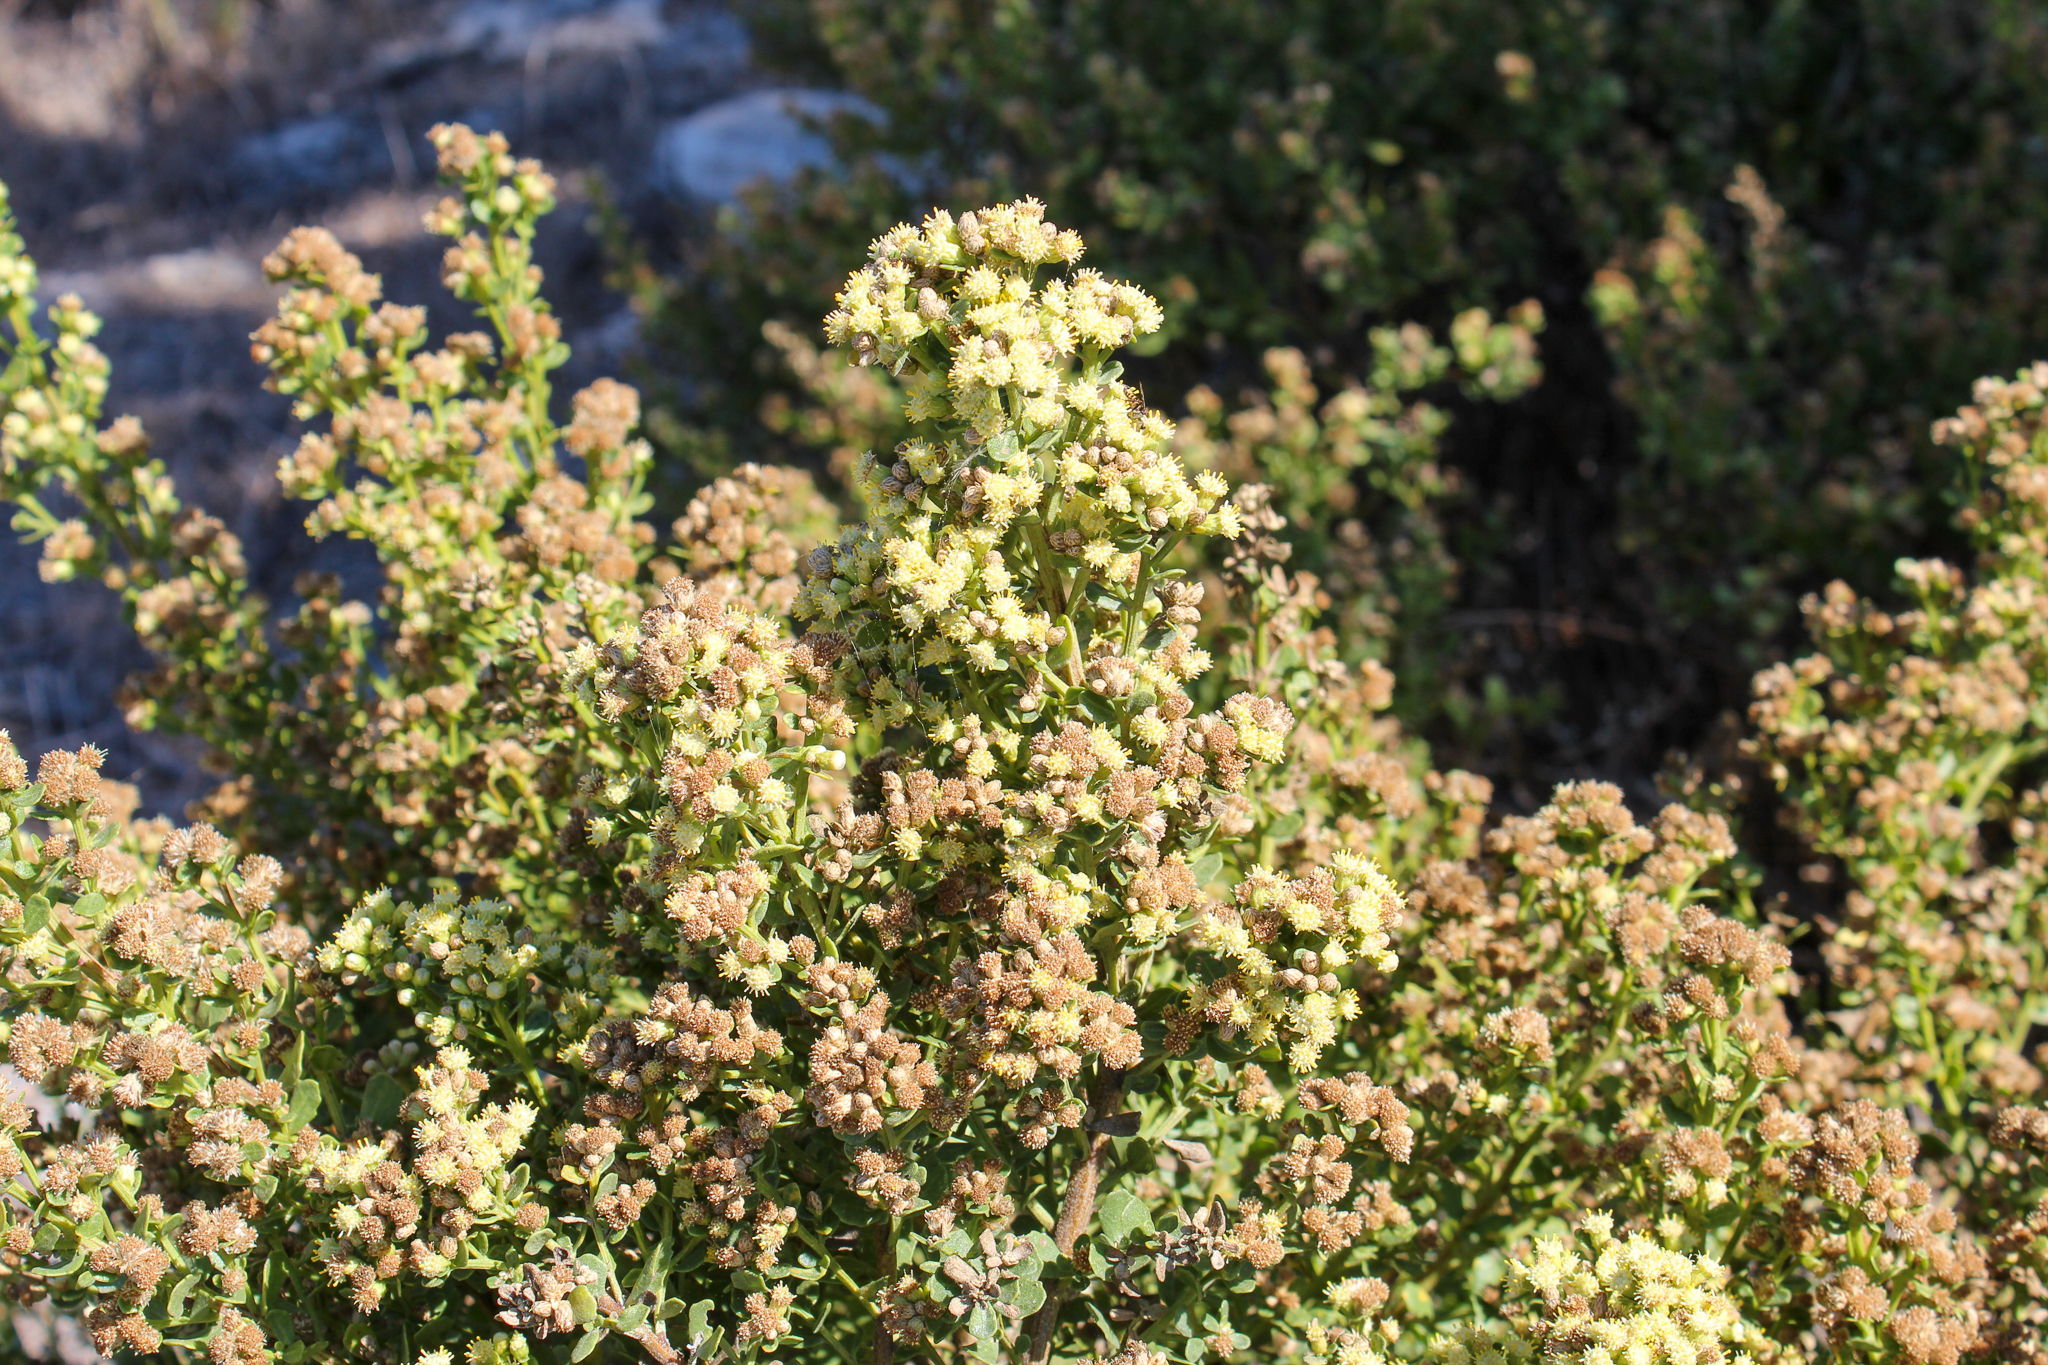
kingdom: Plantae
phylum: Tracheophyta
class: Magnoliopsida
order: Asterales
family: Asteraceae
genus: Baccharis
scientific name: Baccharis pilularis
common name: Coyotebrush
